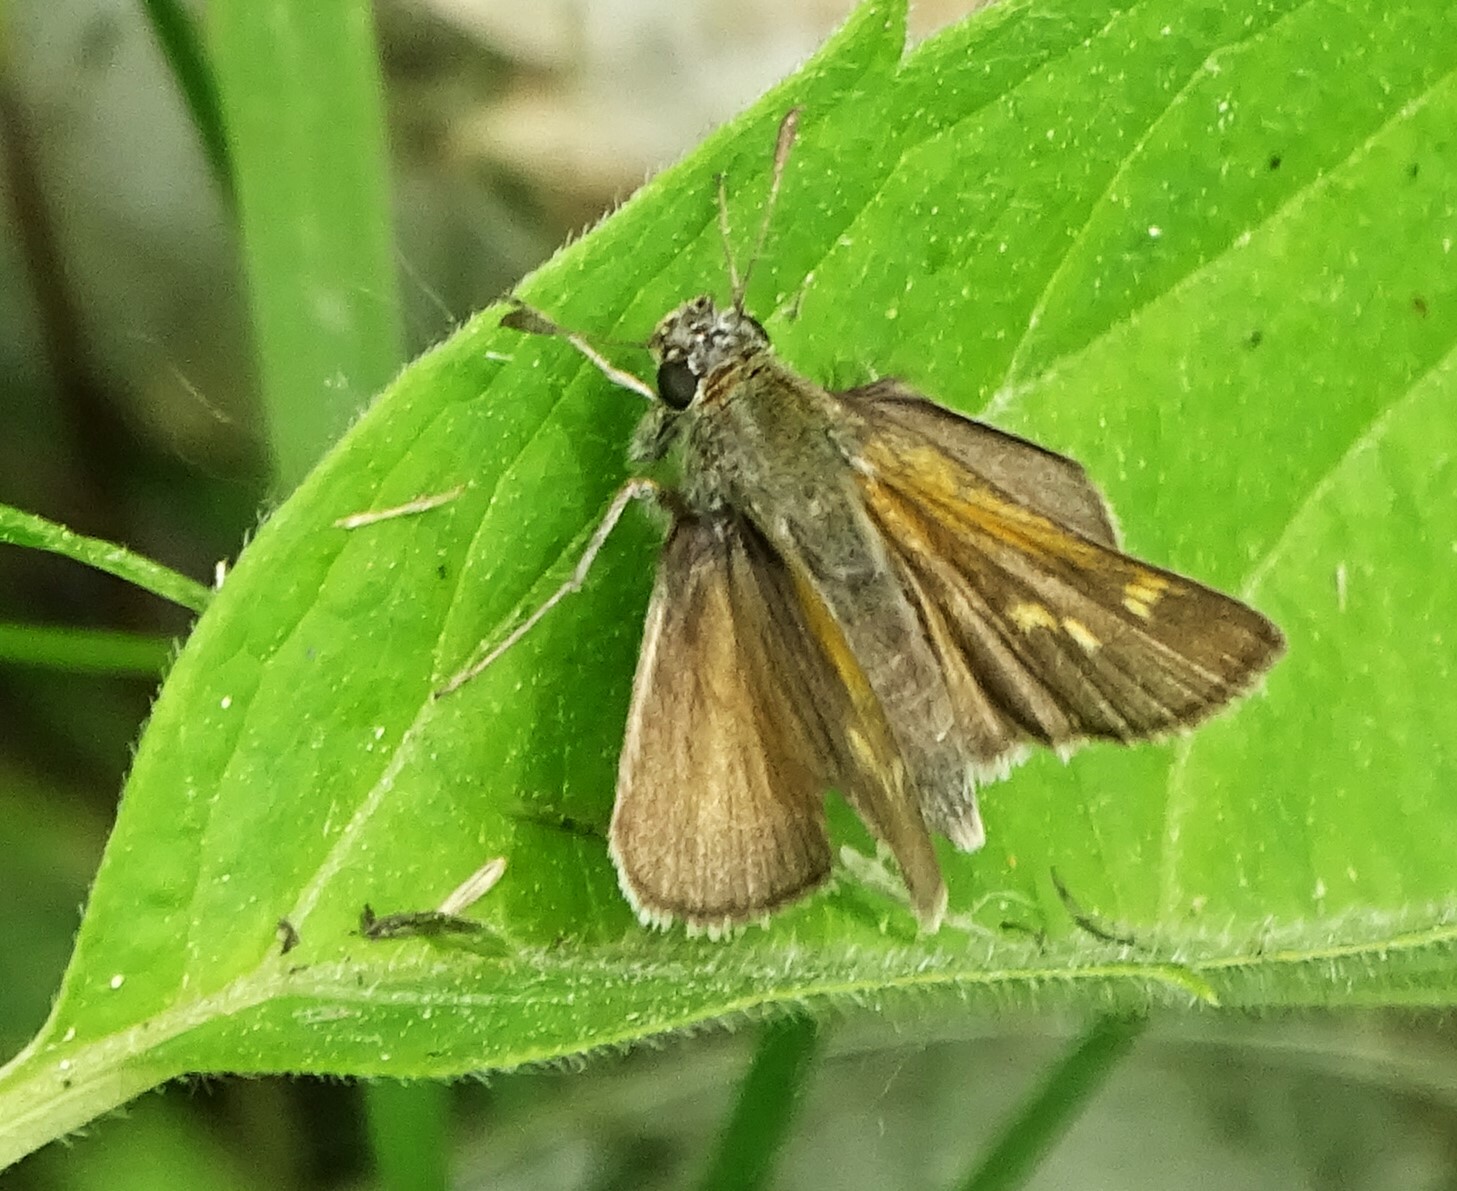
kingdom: Animalia
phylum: Arthropoda
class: Insecta
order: Lepidoptera
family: Hesperiidae
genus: Polites
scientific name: Polites themistocles
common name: Tawny-edged skipper
